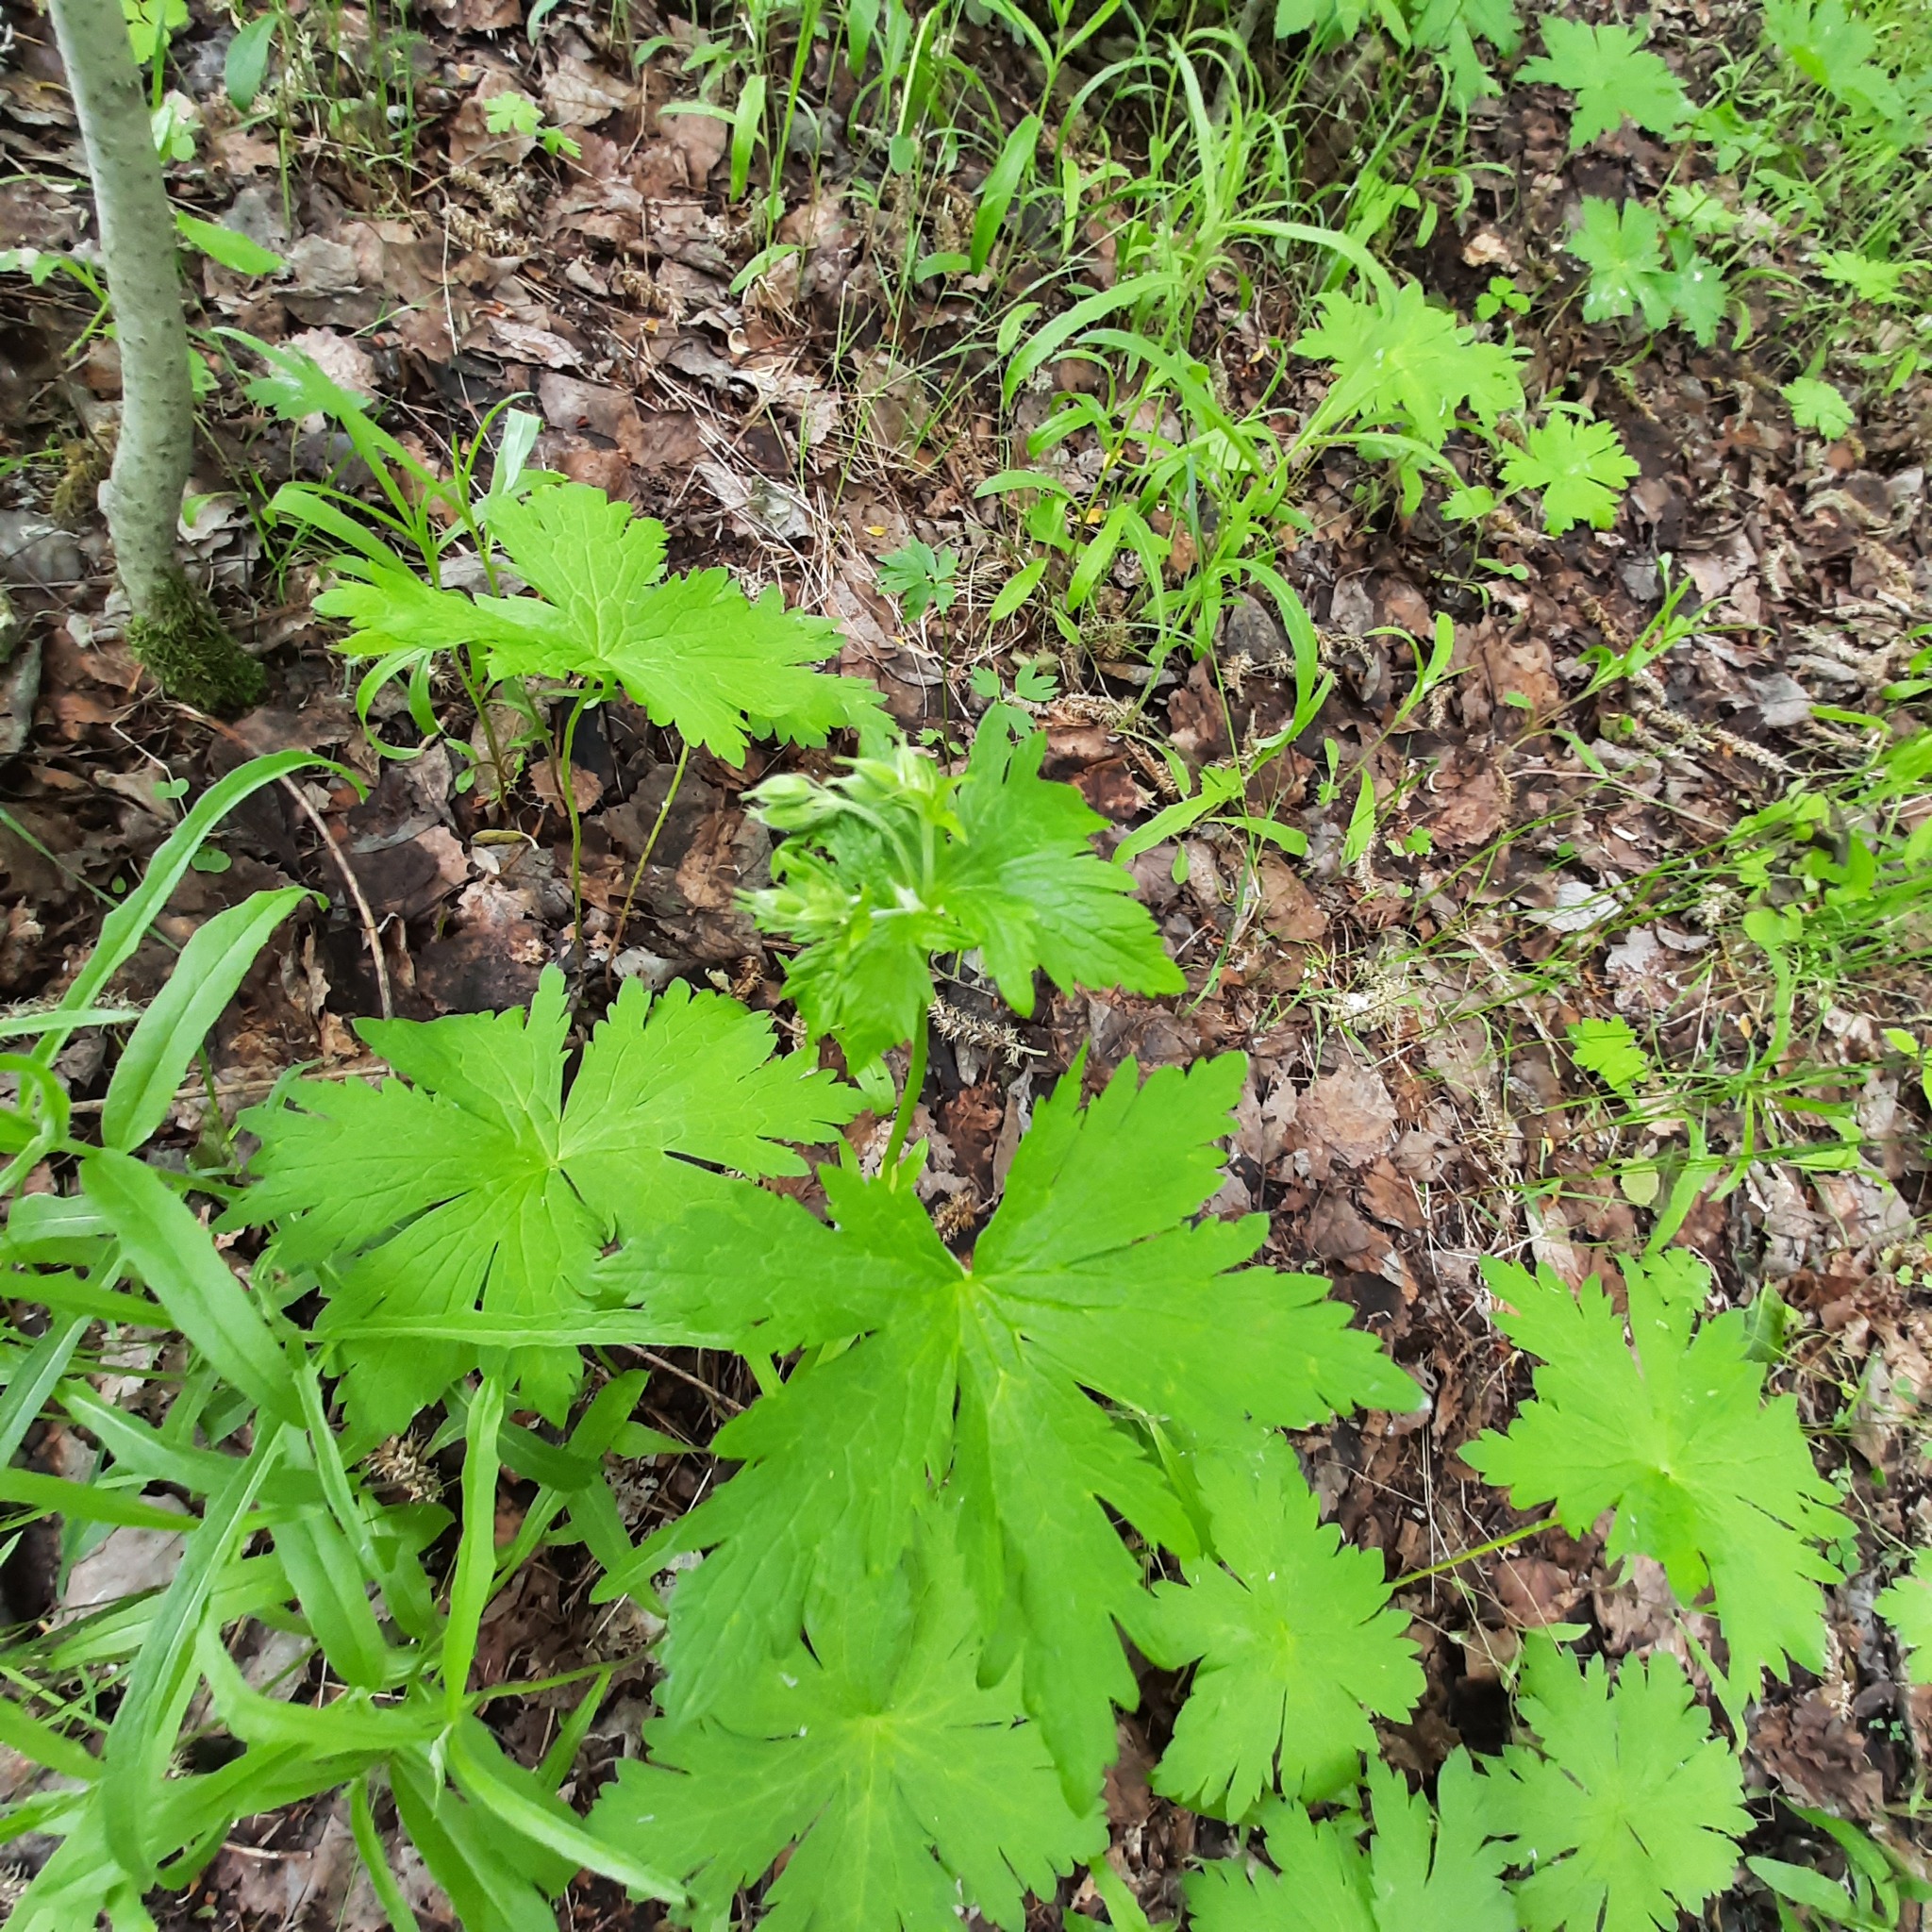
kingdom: Plantae
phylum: Tracheophyta
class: Magnoliopsida
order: Geraniales
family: Geraniaceae
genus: Geranium
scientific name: Geranium sylvaticum
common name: Wood crane's-bill
